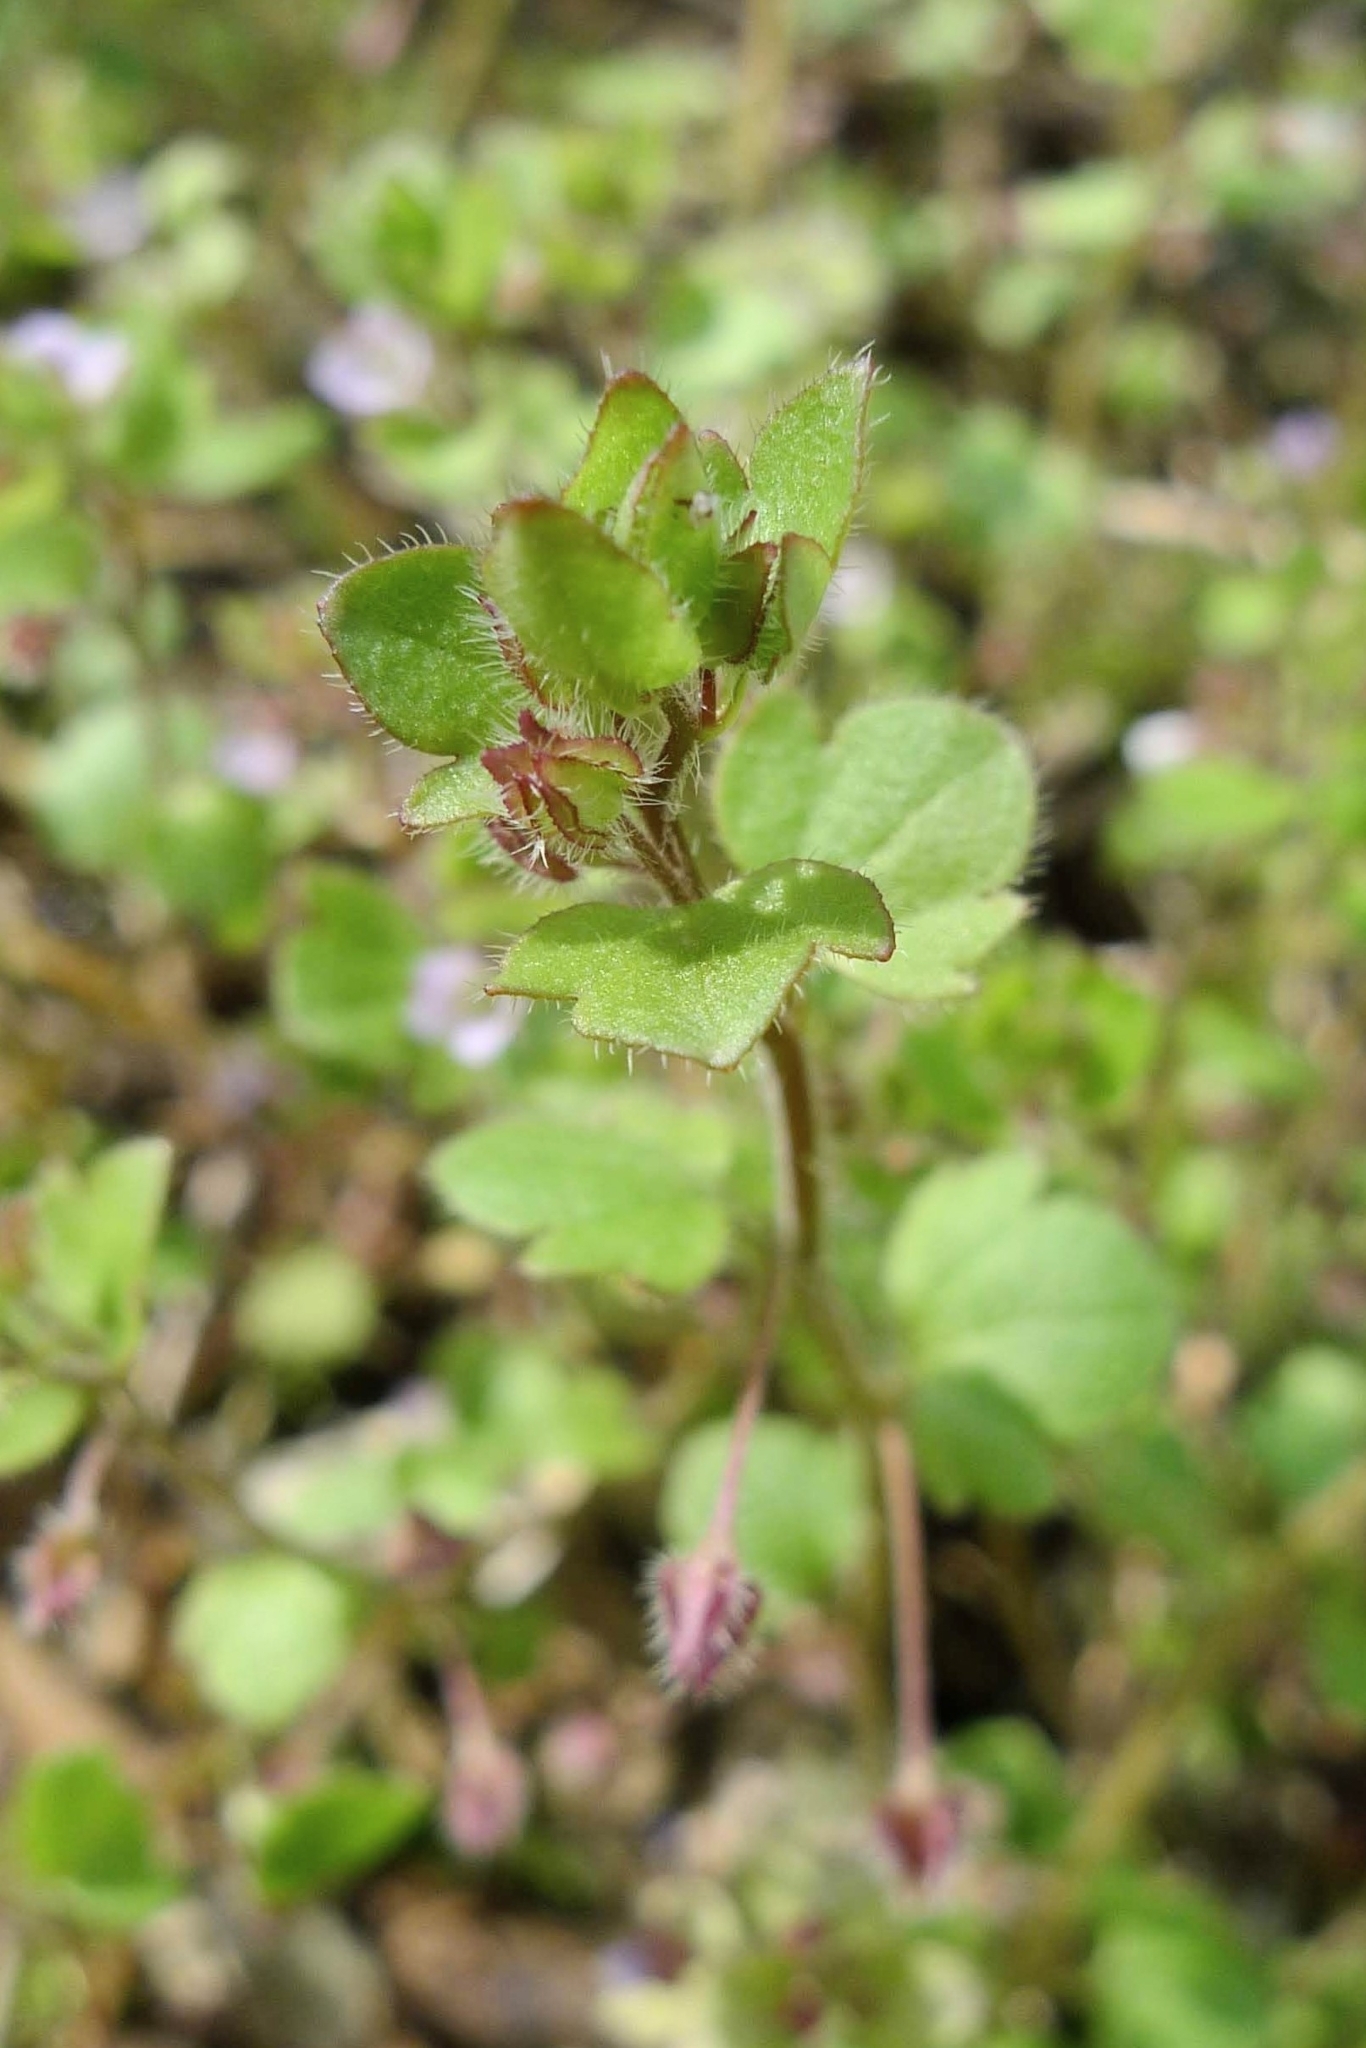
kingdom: Plantae
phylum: Tracheophyta
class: Magnoliopsida
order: Lamiales
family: Plantaginaceae
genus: Veronica
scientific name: Veronica sublobata
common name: False ivy-leaved speedwell
